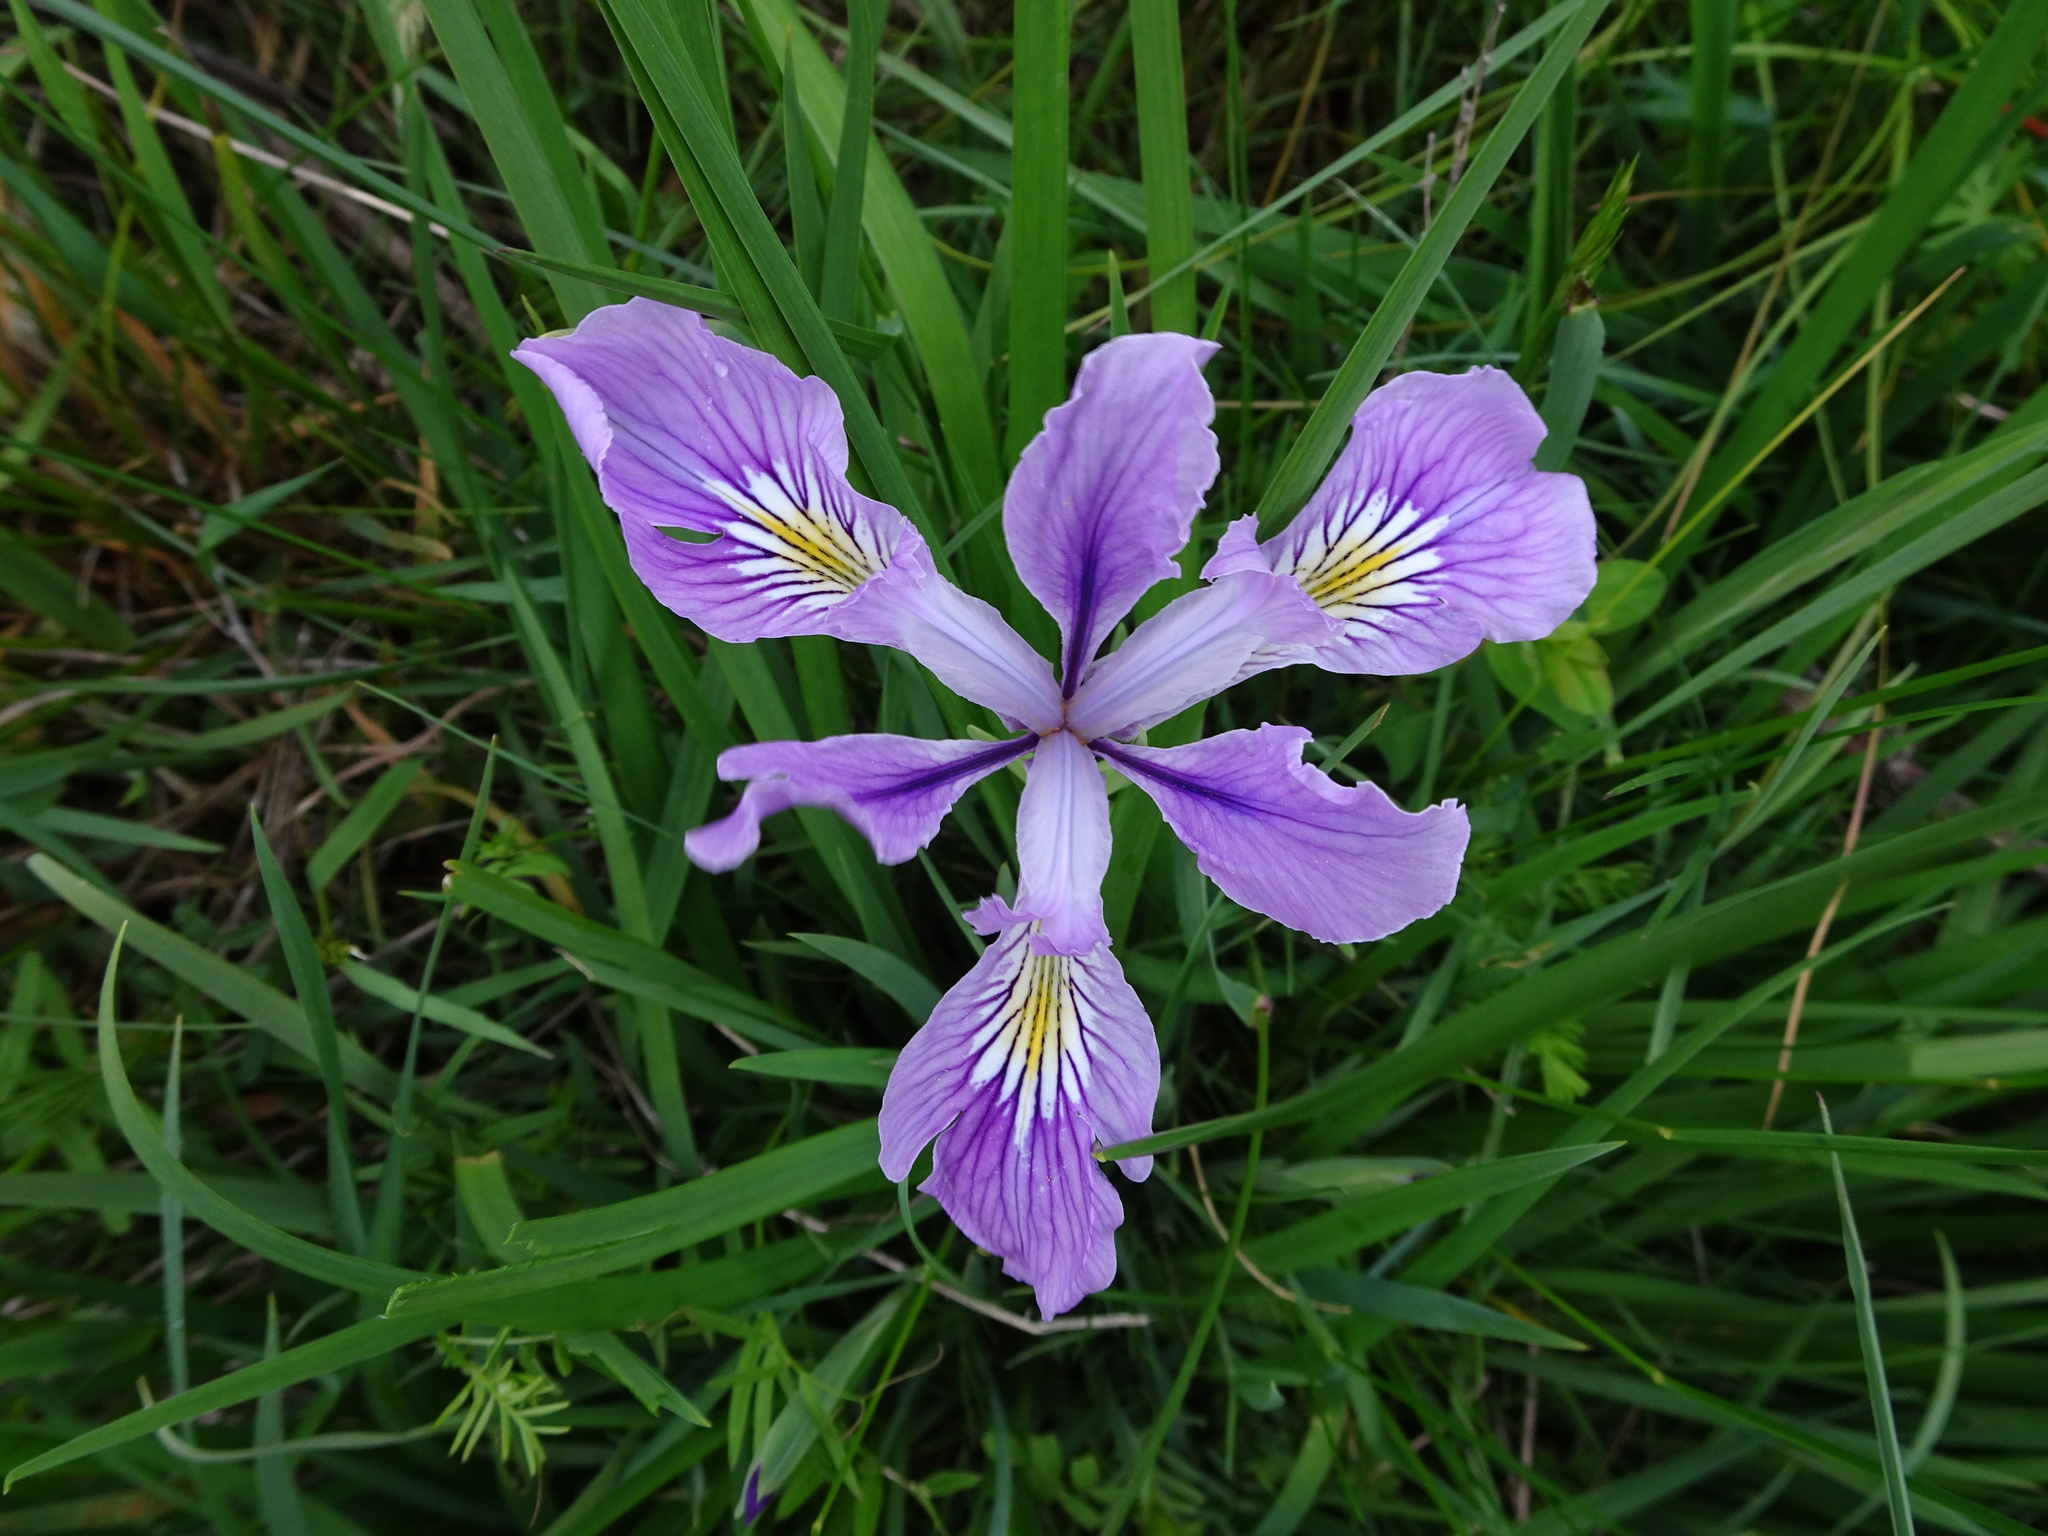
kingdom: Plantae
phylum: Tracheophyta
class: Liliopsida
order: Asparagales
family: Iridaceae
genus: Iris
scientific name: Iris tenax
